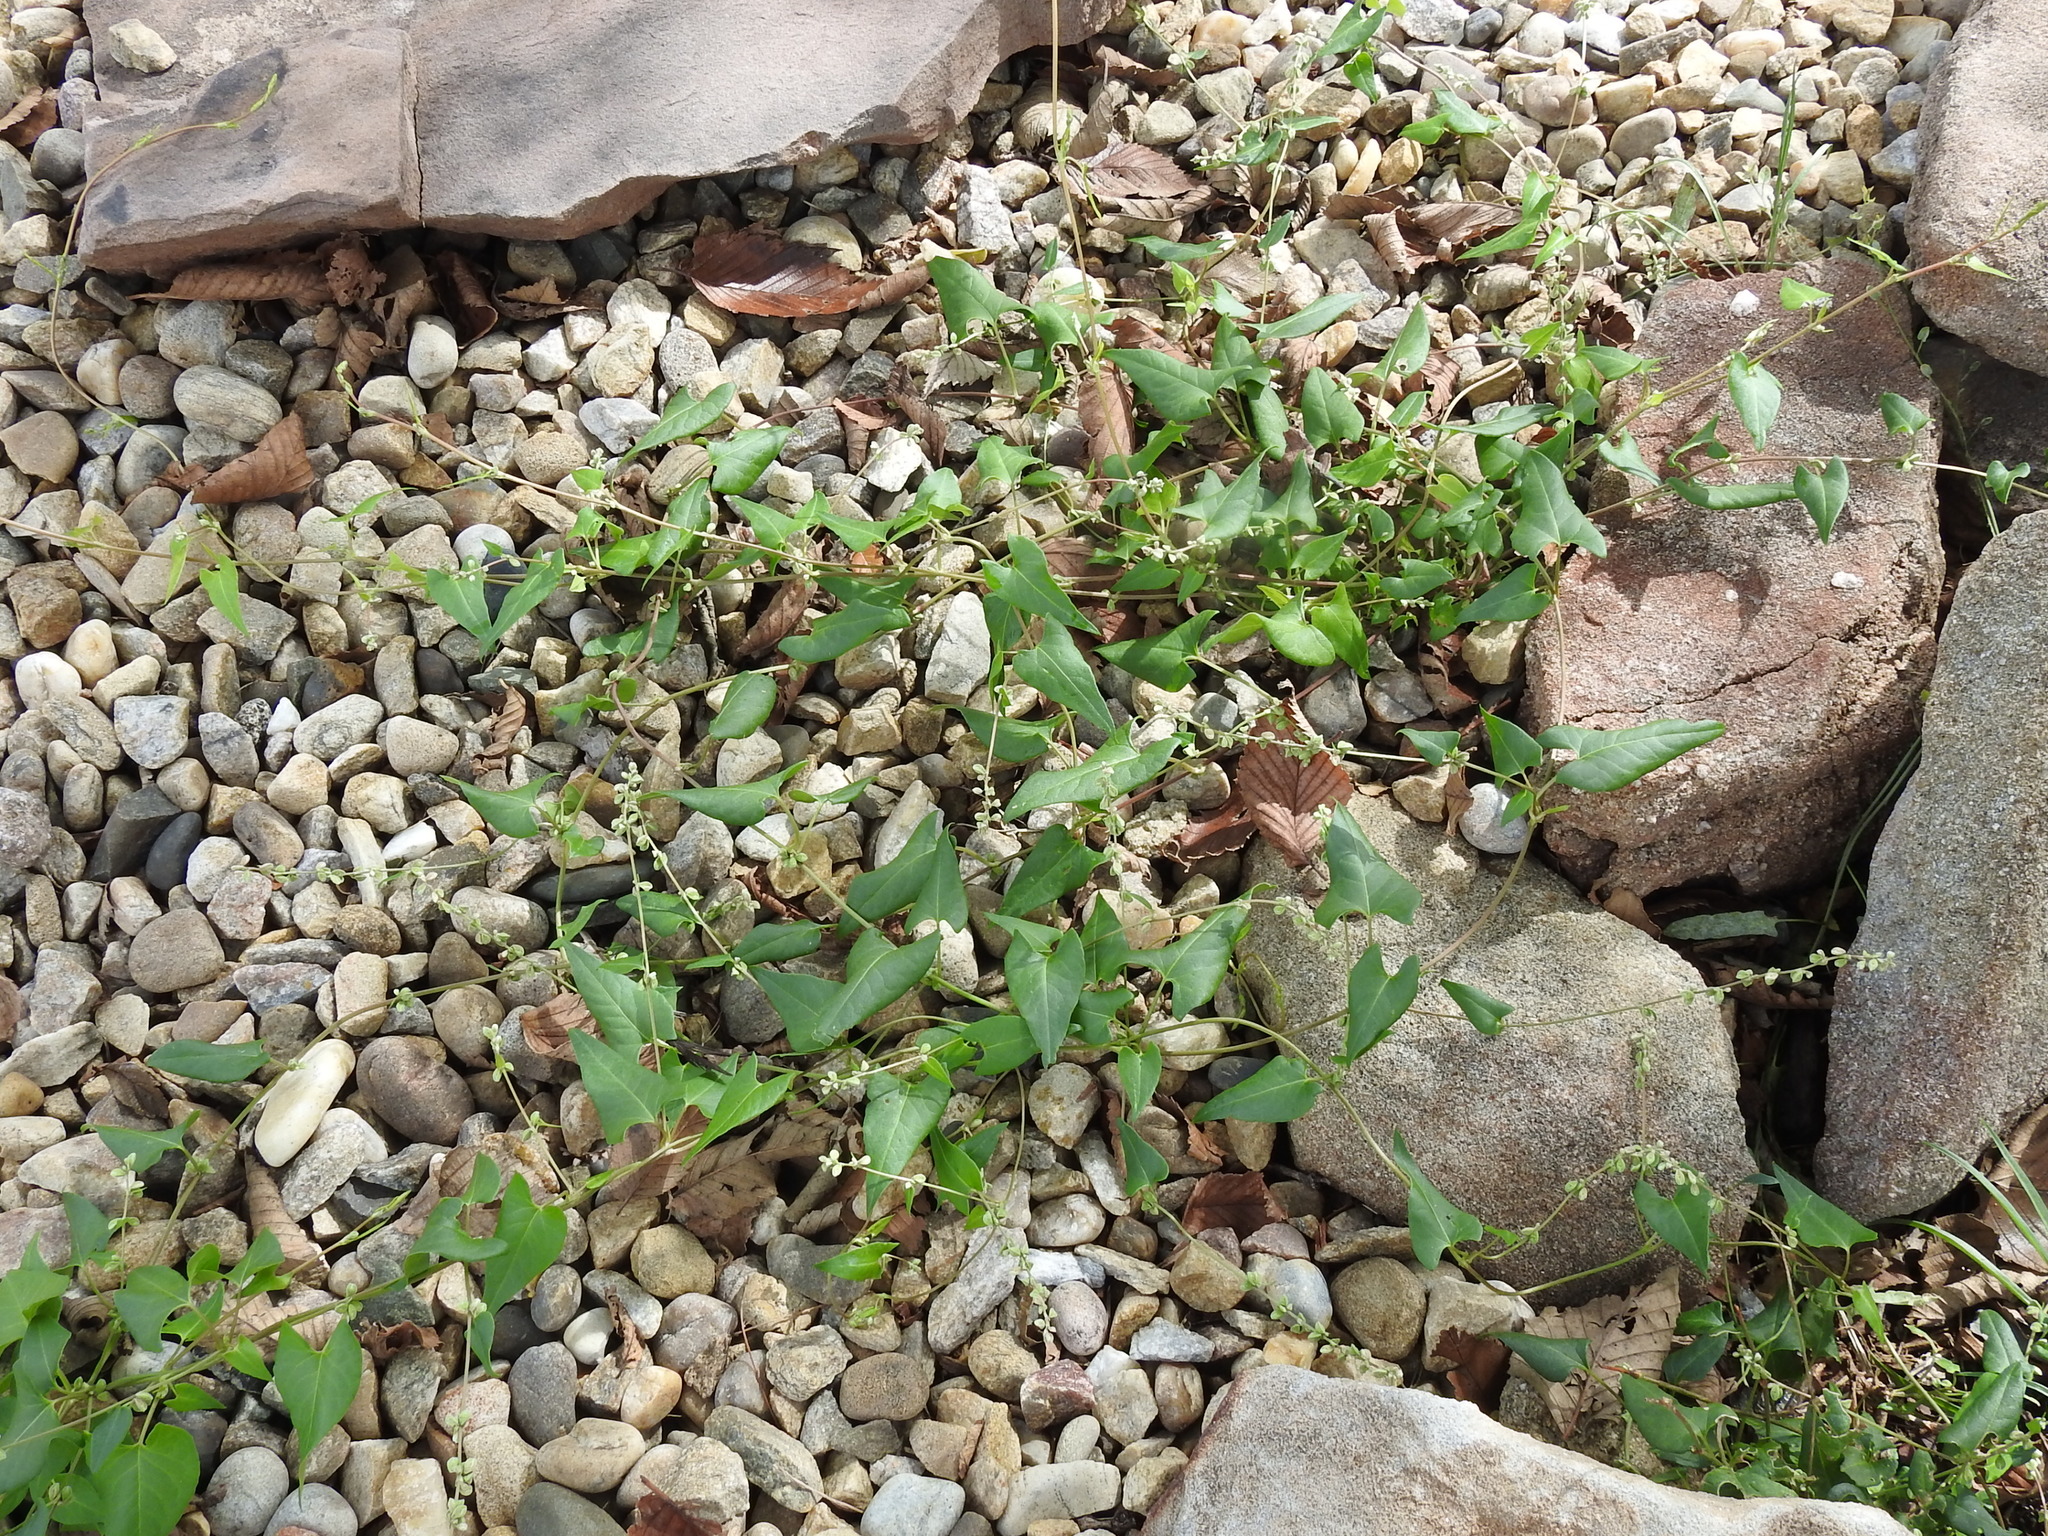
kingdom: Plantae
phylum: Tracheophyta
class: Magnoliopsida
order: Caryophyllales
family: Polygonaceae
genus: Fallopia
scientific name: Fallopia convolvulus
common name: Black bindweed
